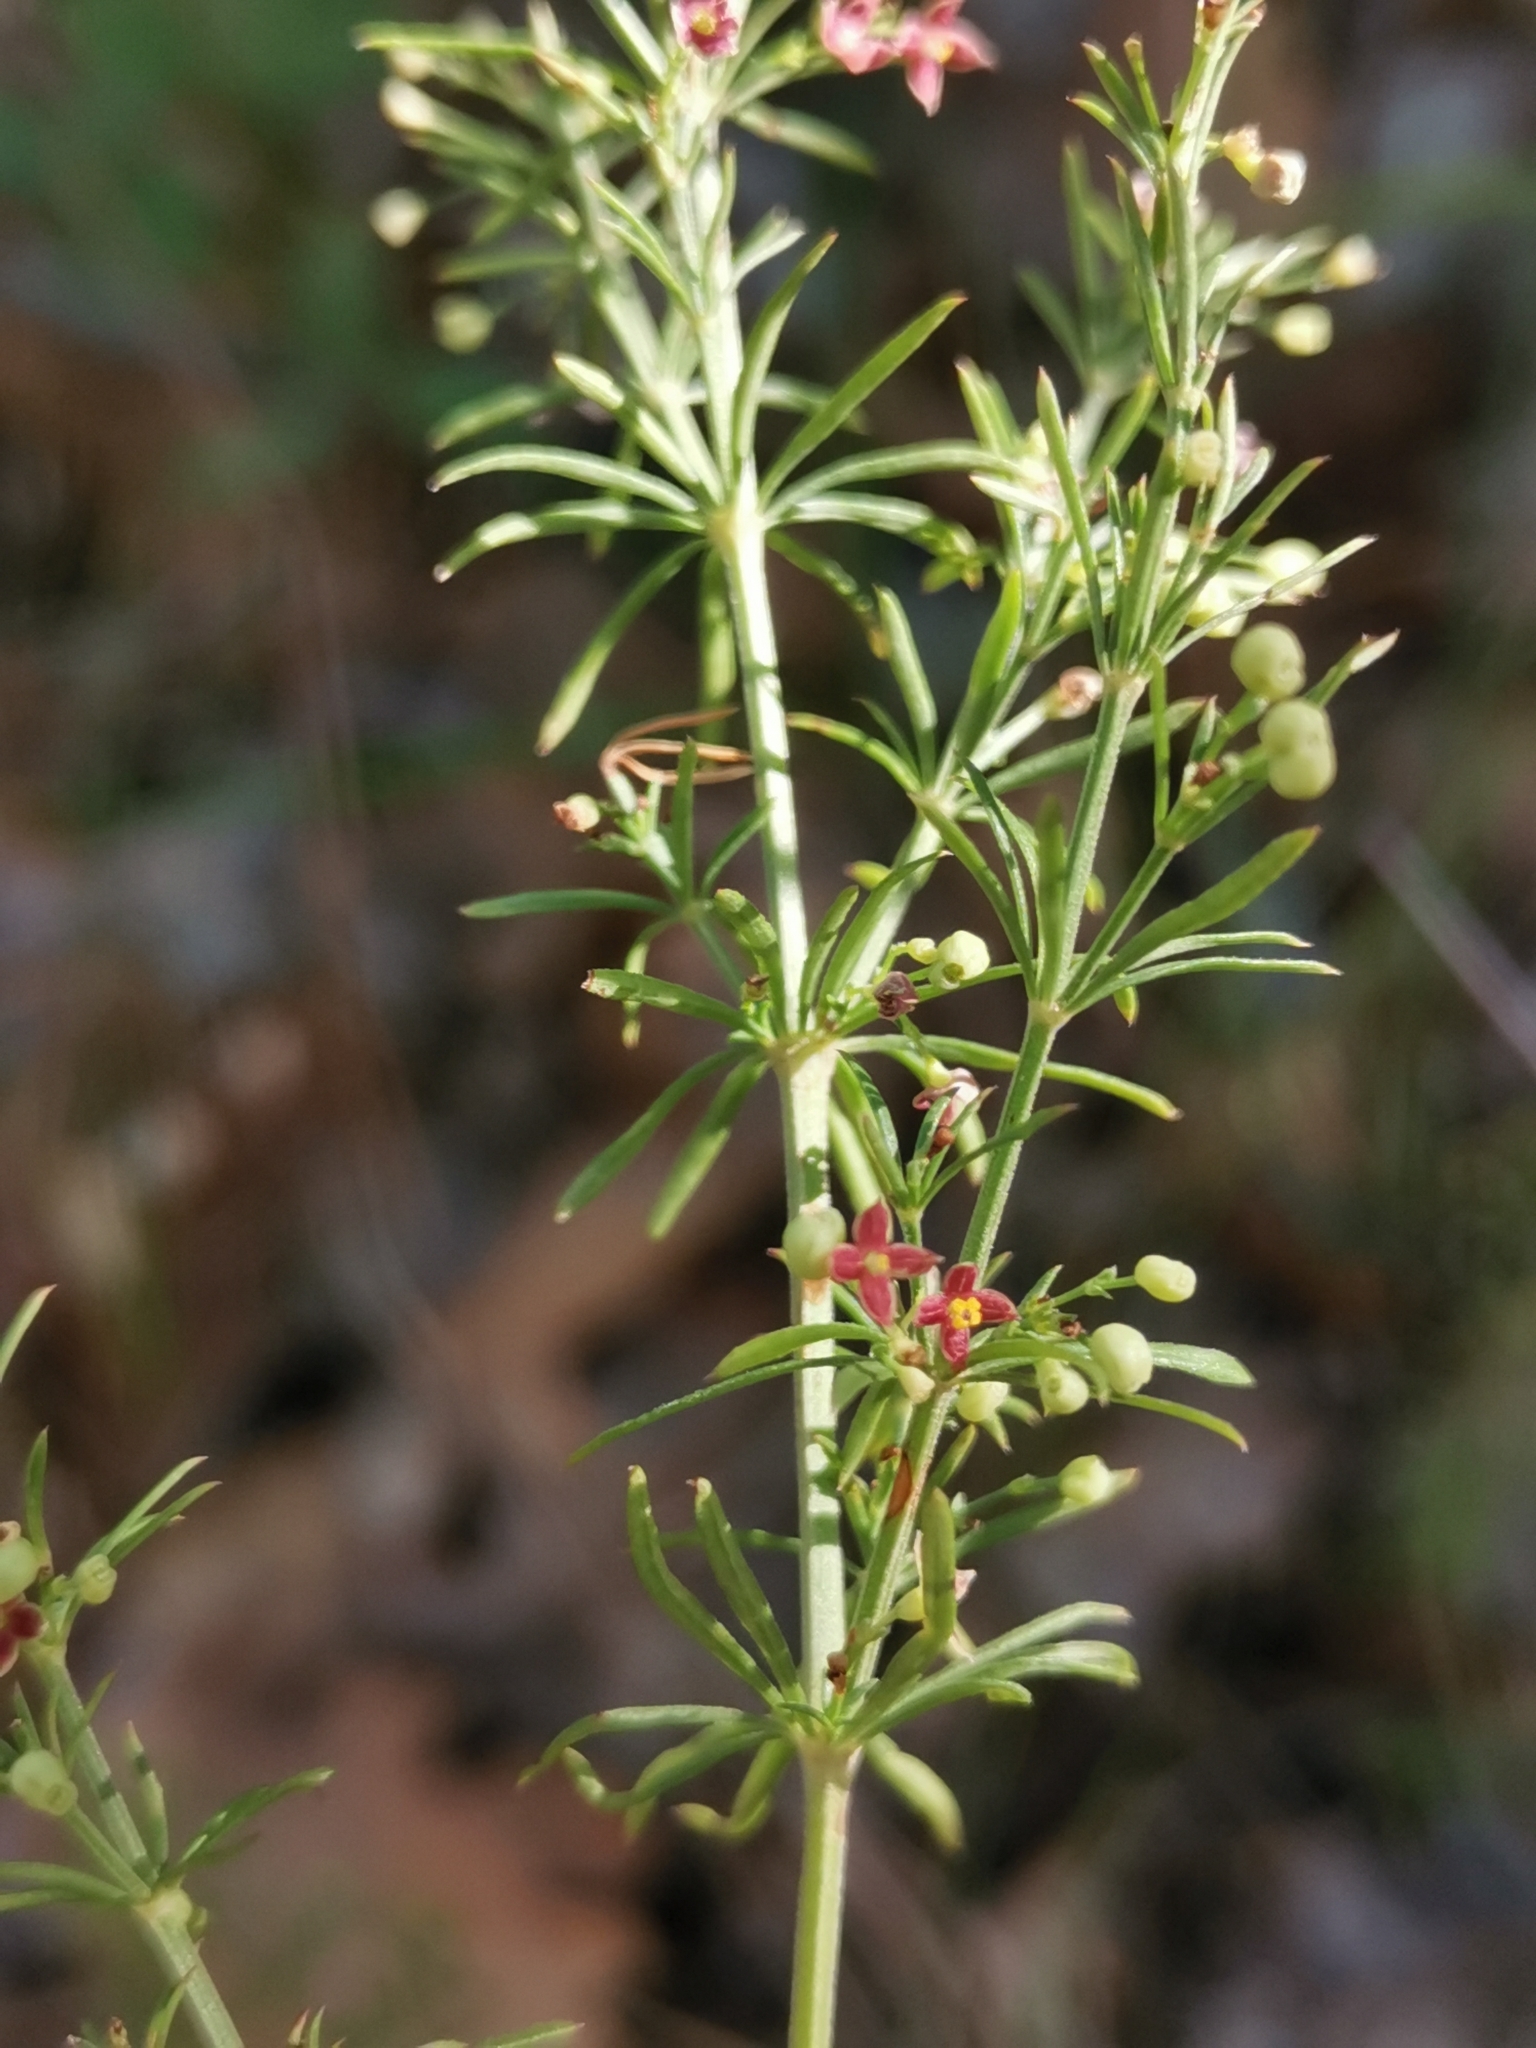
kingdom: Plantae
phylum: Tracheophyta
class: Magnoliopsida
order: Gentianales
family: Rubiaceae
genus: Thliphthisa
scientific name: Thliphthisa purpurea
